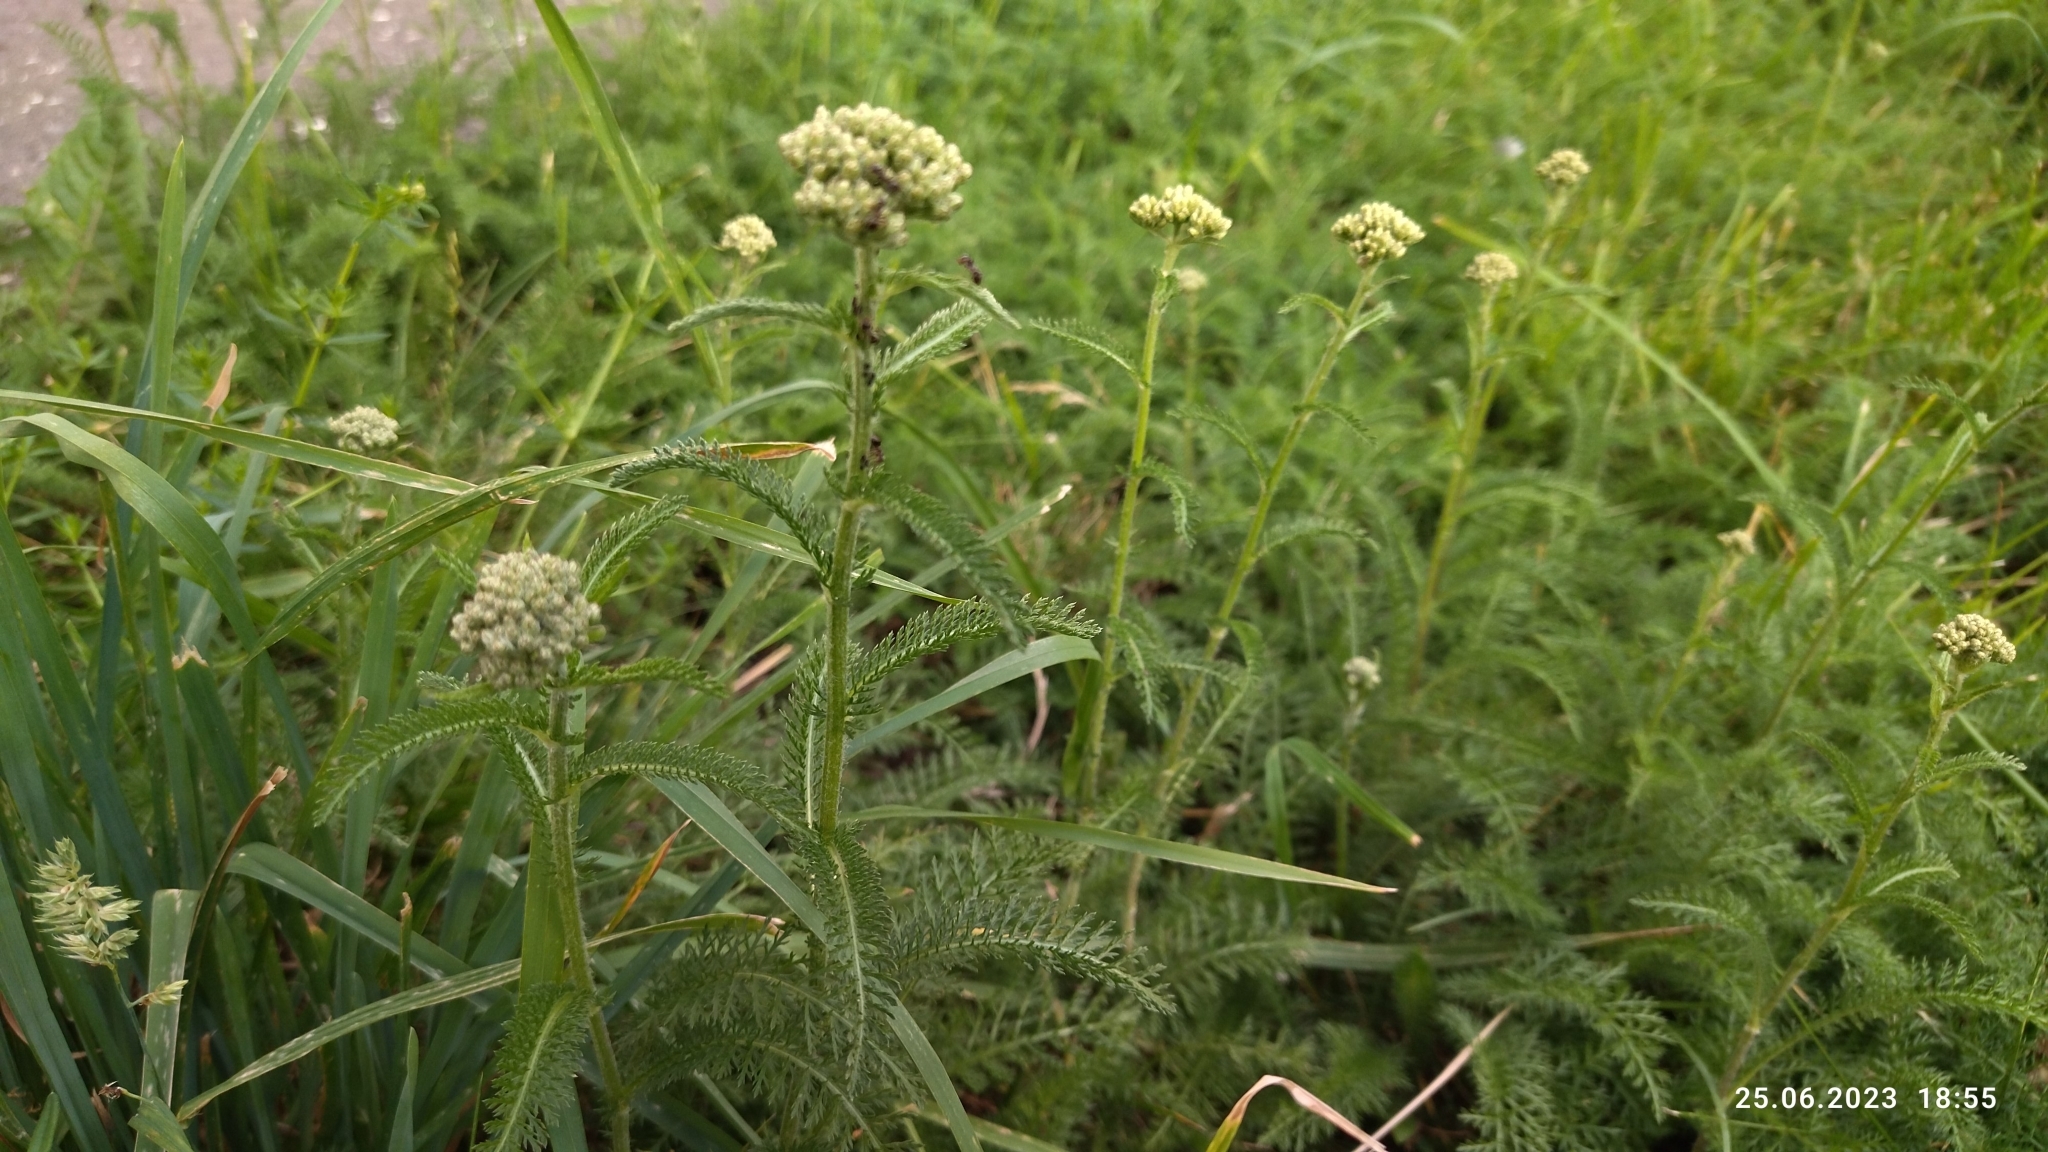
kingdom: Plantae
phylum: Tracheophyta
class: Magnoliopsida
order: Asterales
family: Asteraceae
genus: Achillea
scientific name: Achillea millefolium
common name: Yarrow
